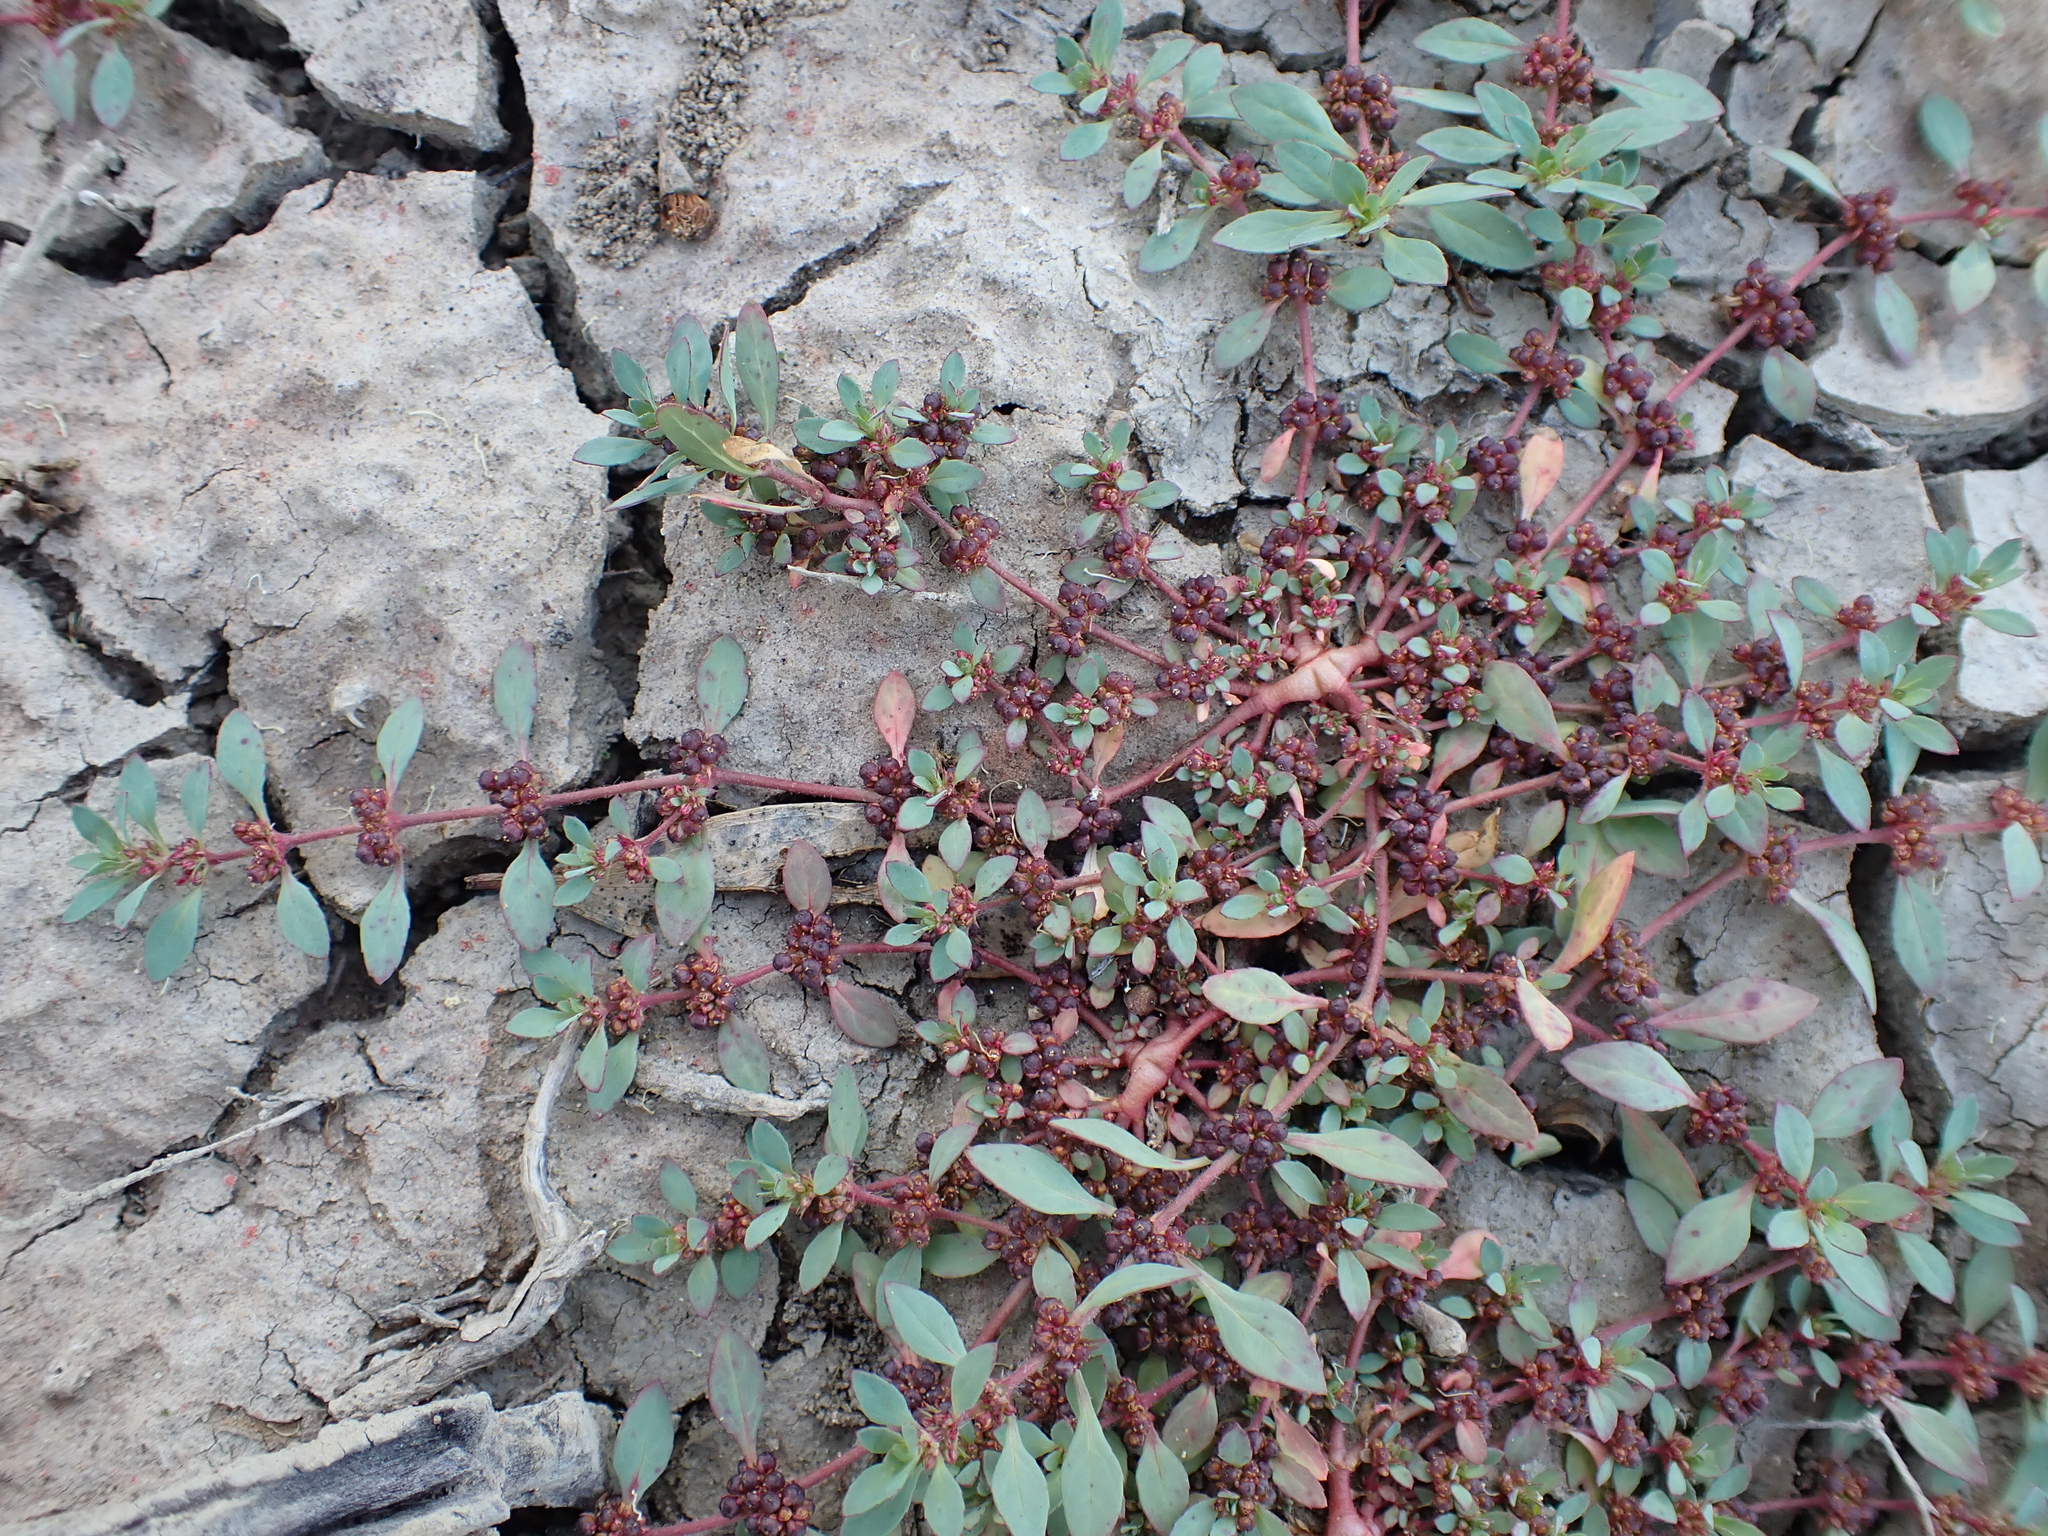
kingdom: Plantae
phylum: Tracheophyta
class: Magnoliopsida
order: Malpighiales
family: Elatinaceae
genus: Bergia
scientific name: Bergia trimera
